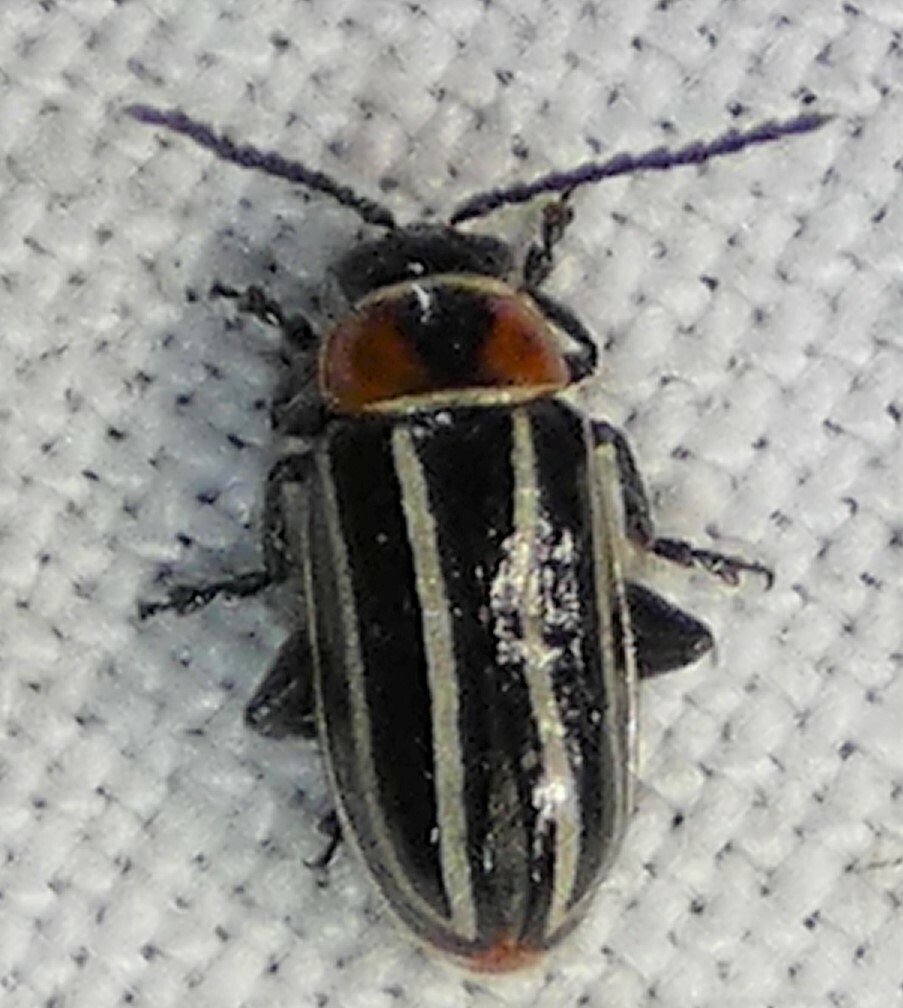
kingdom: Animalia
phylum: Arthropoda
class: Insecta
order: Coleoptera
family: Chrysomelidae
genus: Disonycha
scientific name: Disonycha pensylvanica
